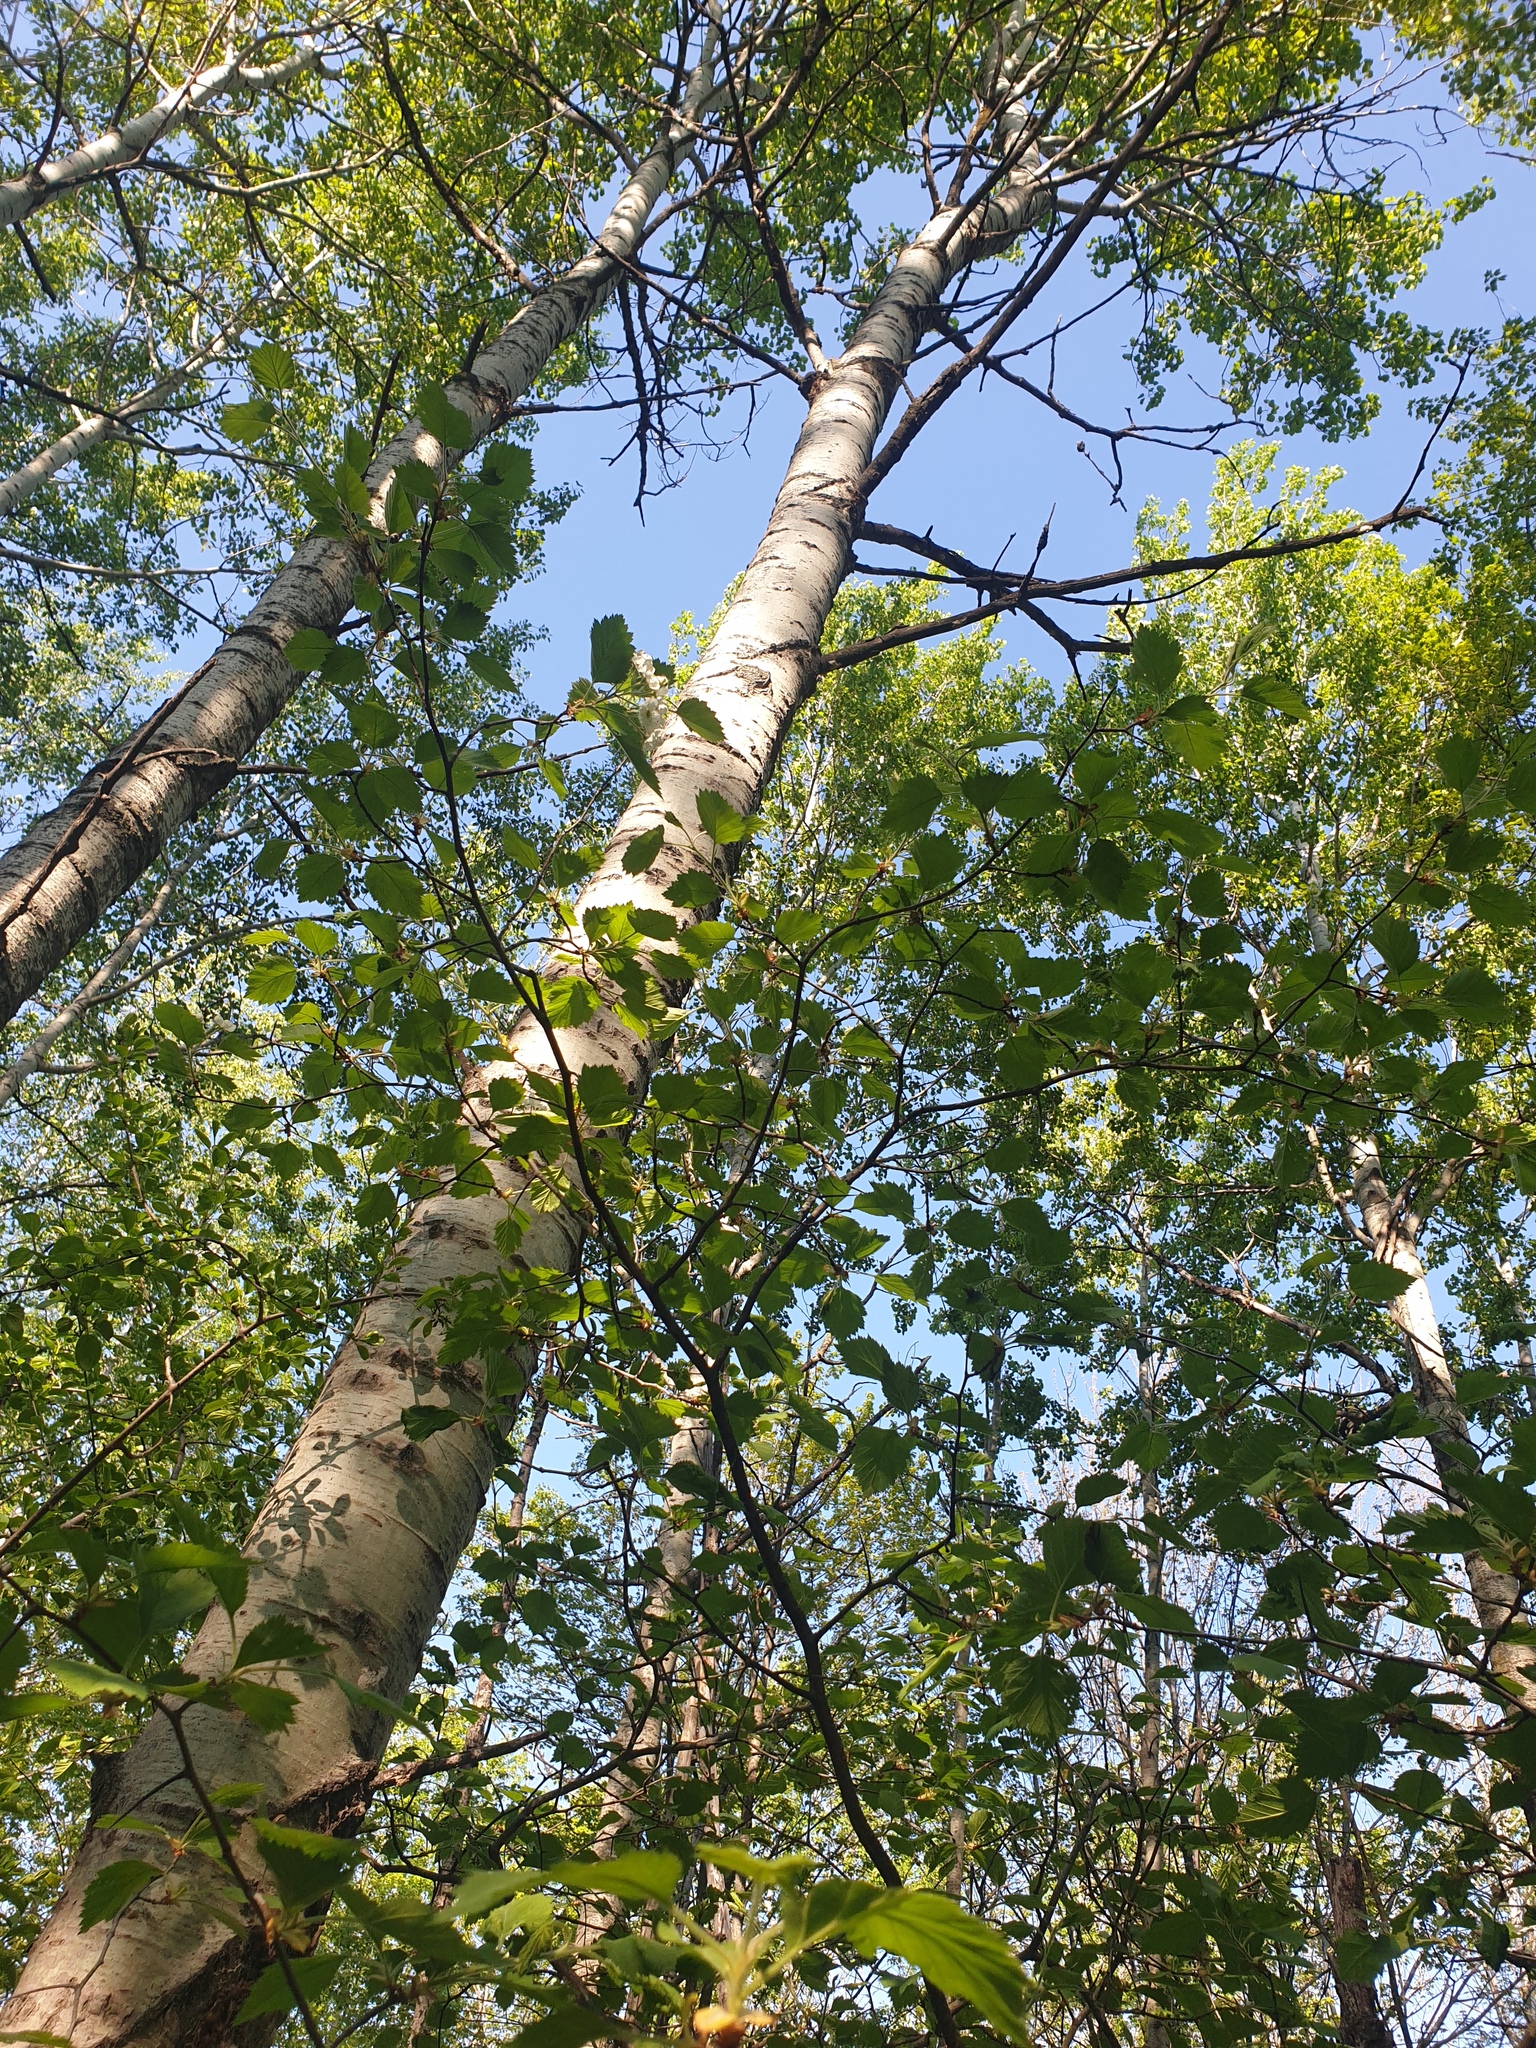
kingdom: Plantae
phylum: Tracheophyta
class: Magnoliopsida
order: Rosales
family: Rosaceae
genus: Crataegus
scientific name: Crataegus submollis
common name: Hairy cockspurthorn
